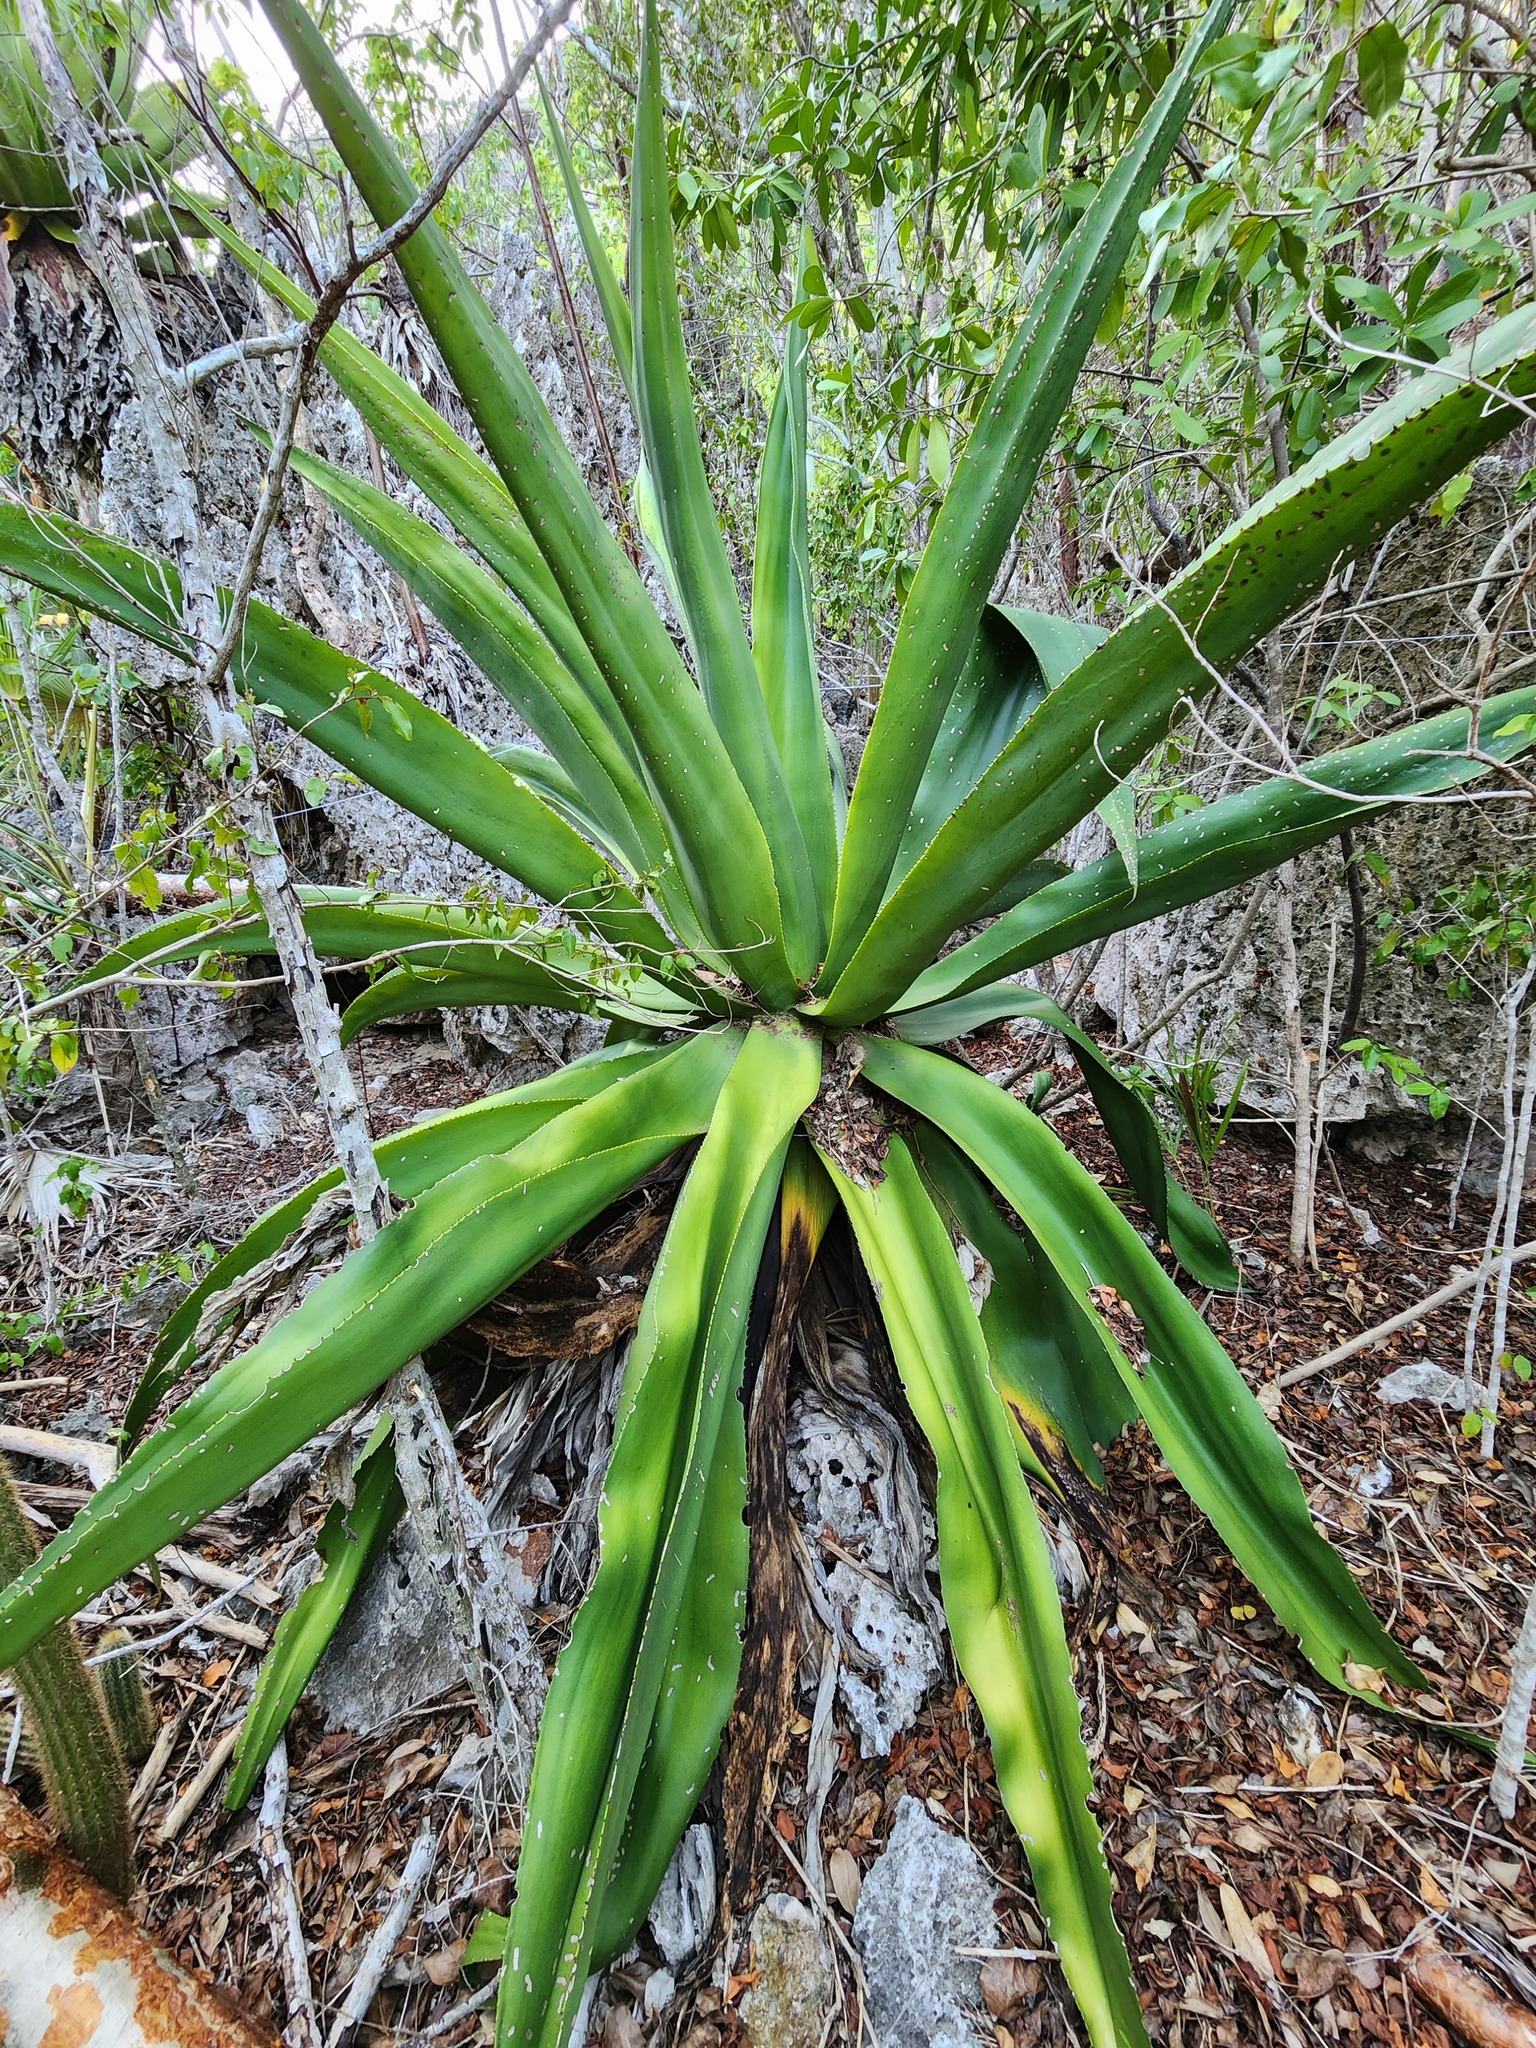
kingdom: Plantae
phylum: Tracheophyta
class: Liliopsida
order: Asparagales
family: Asparagaceae
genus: Agave
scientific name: Agave caymanensis
